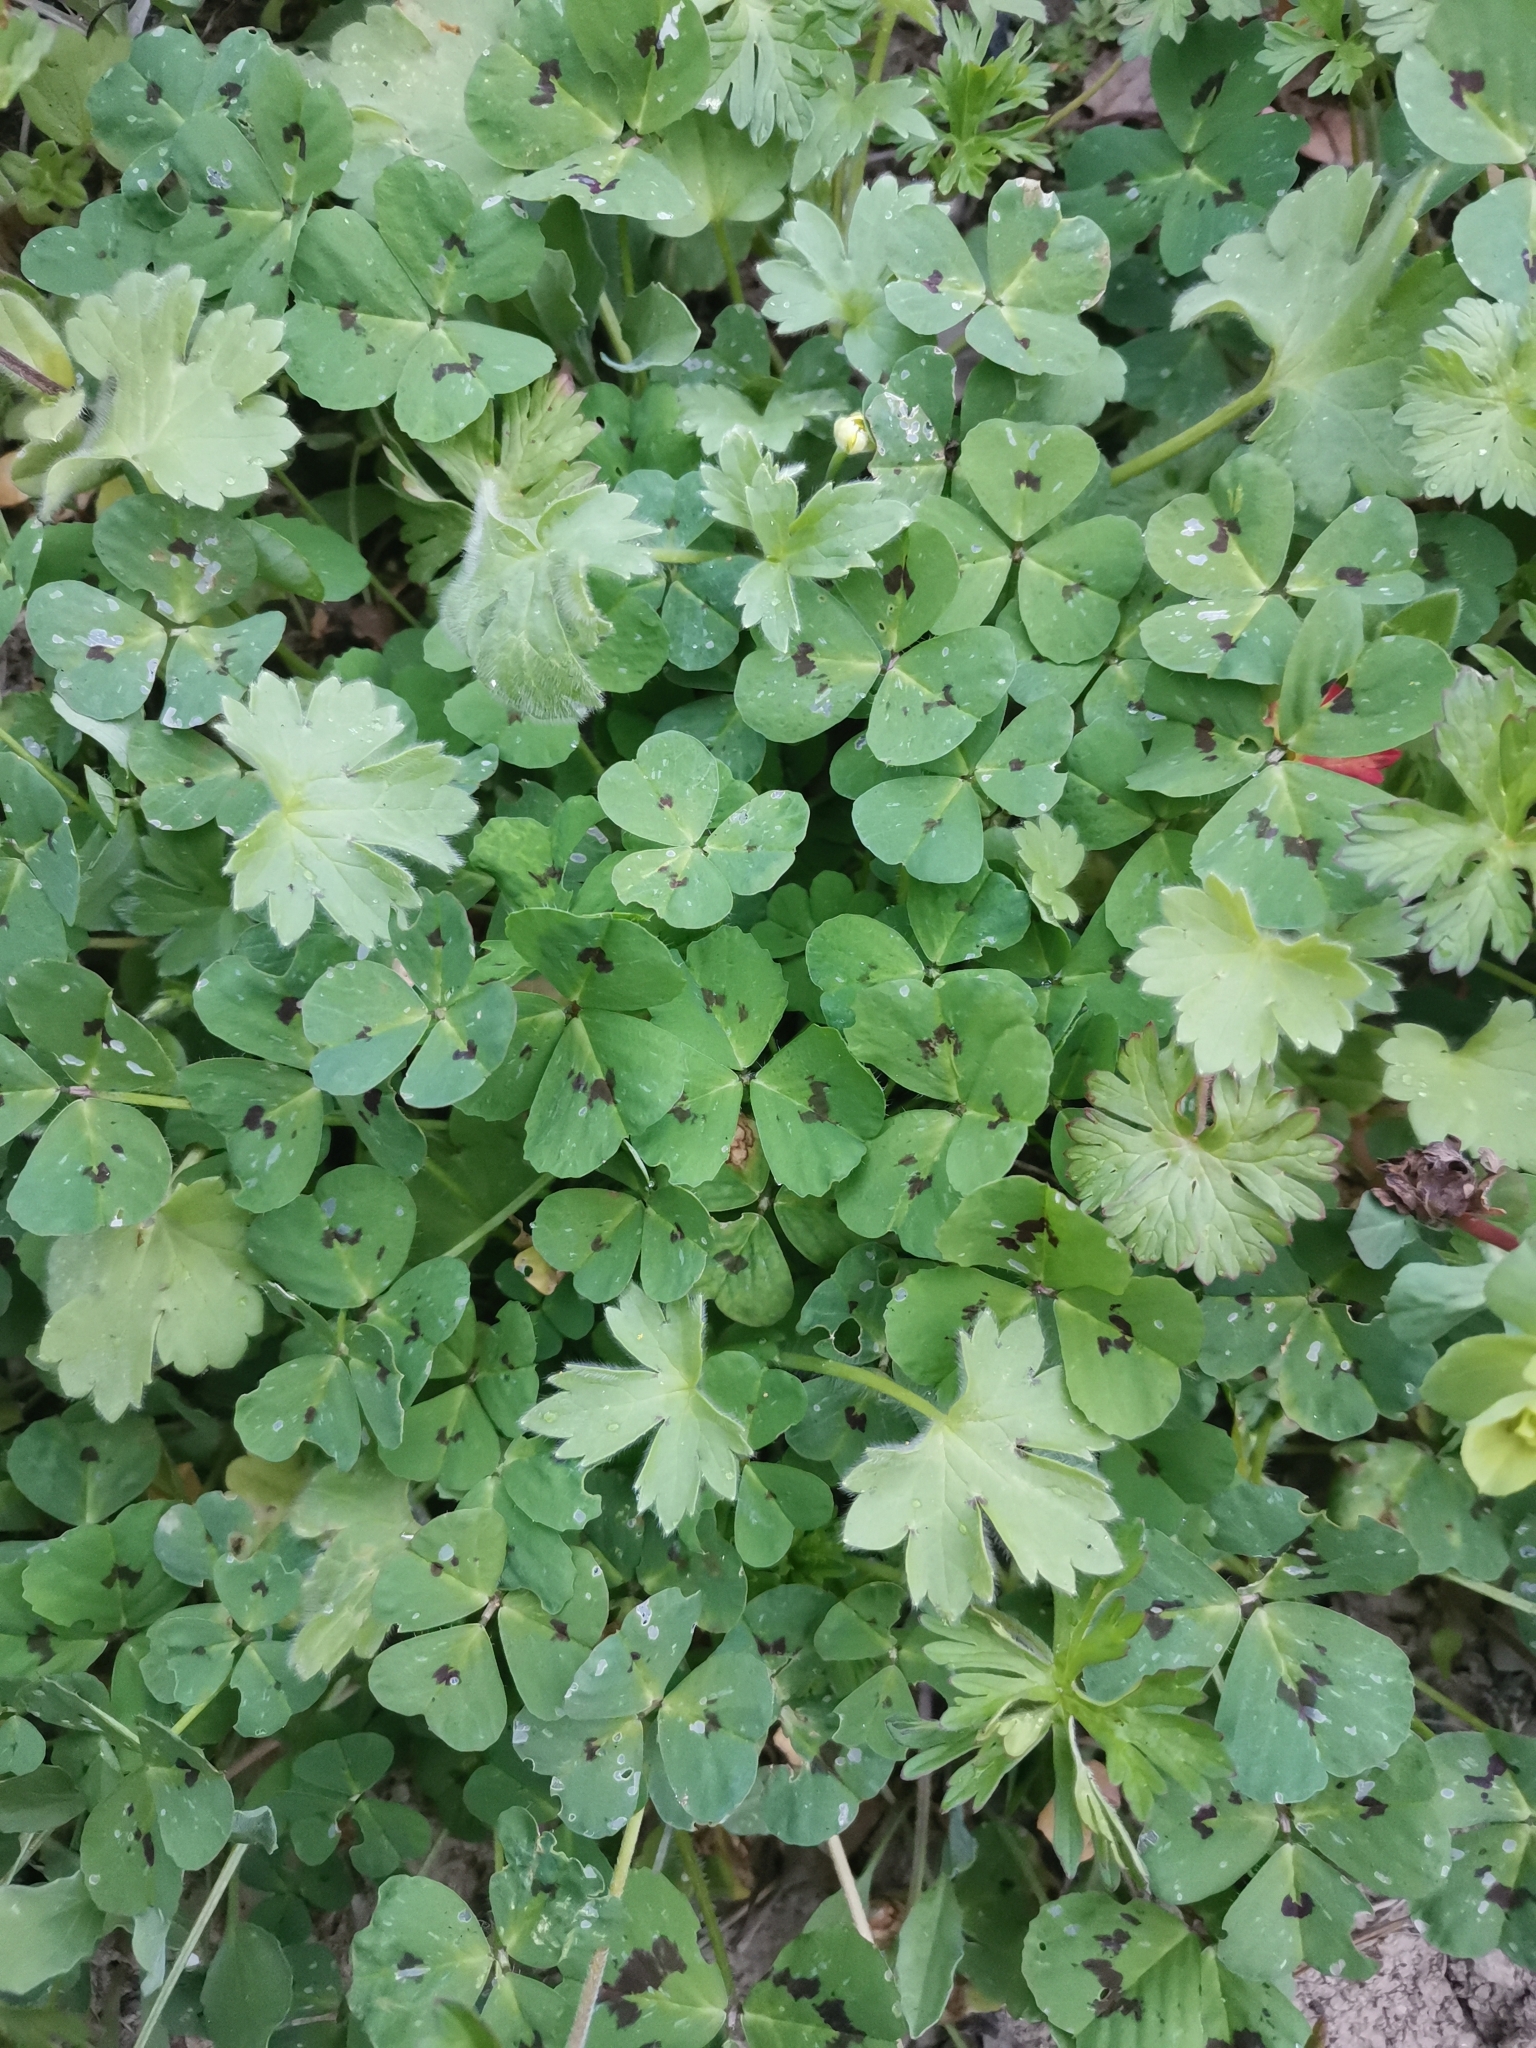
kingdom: Plantae
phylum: Tracheophyta
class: Magnoliopsida
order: Fabales
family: Fabaceae
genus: Medicago
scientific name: Medicago arabica
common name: Spotted medick
